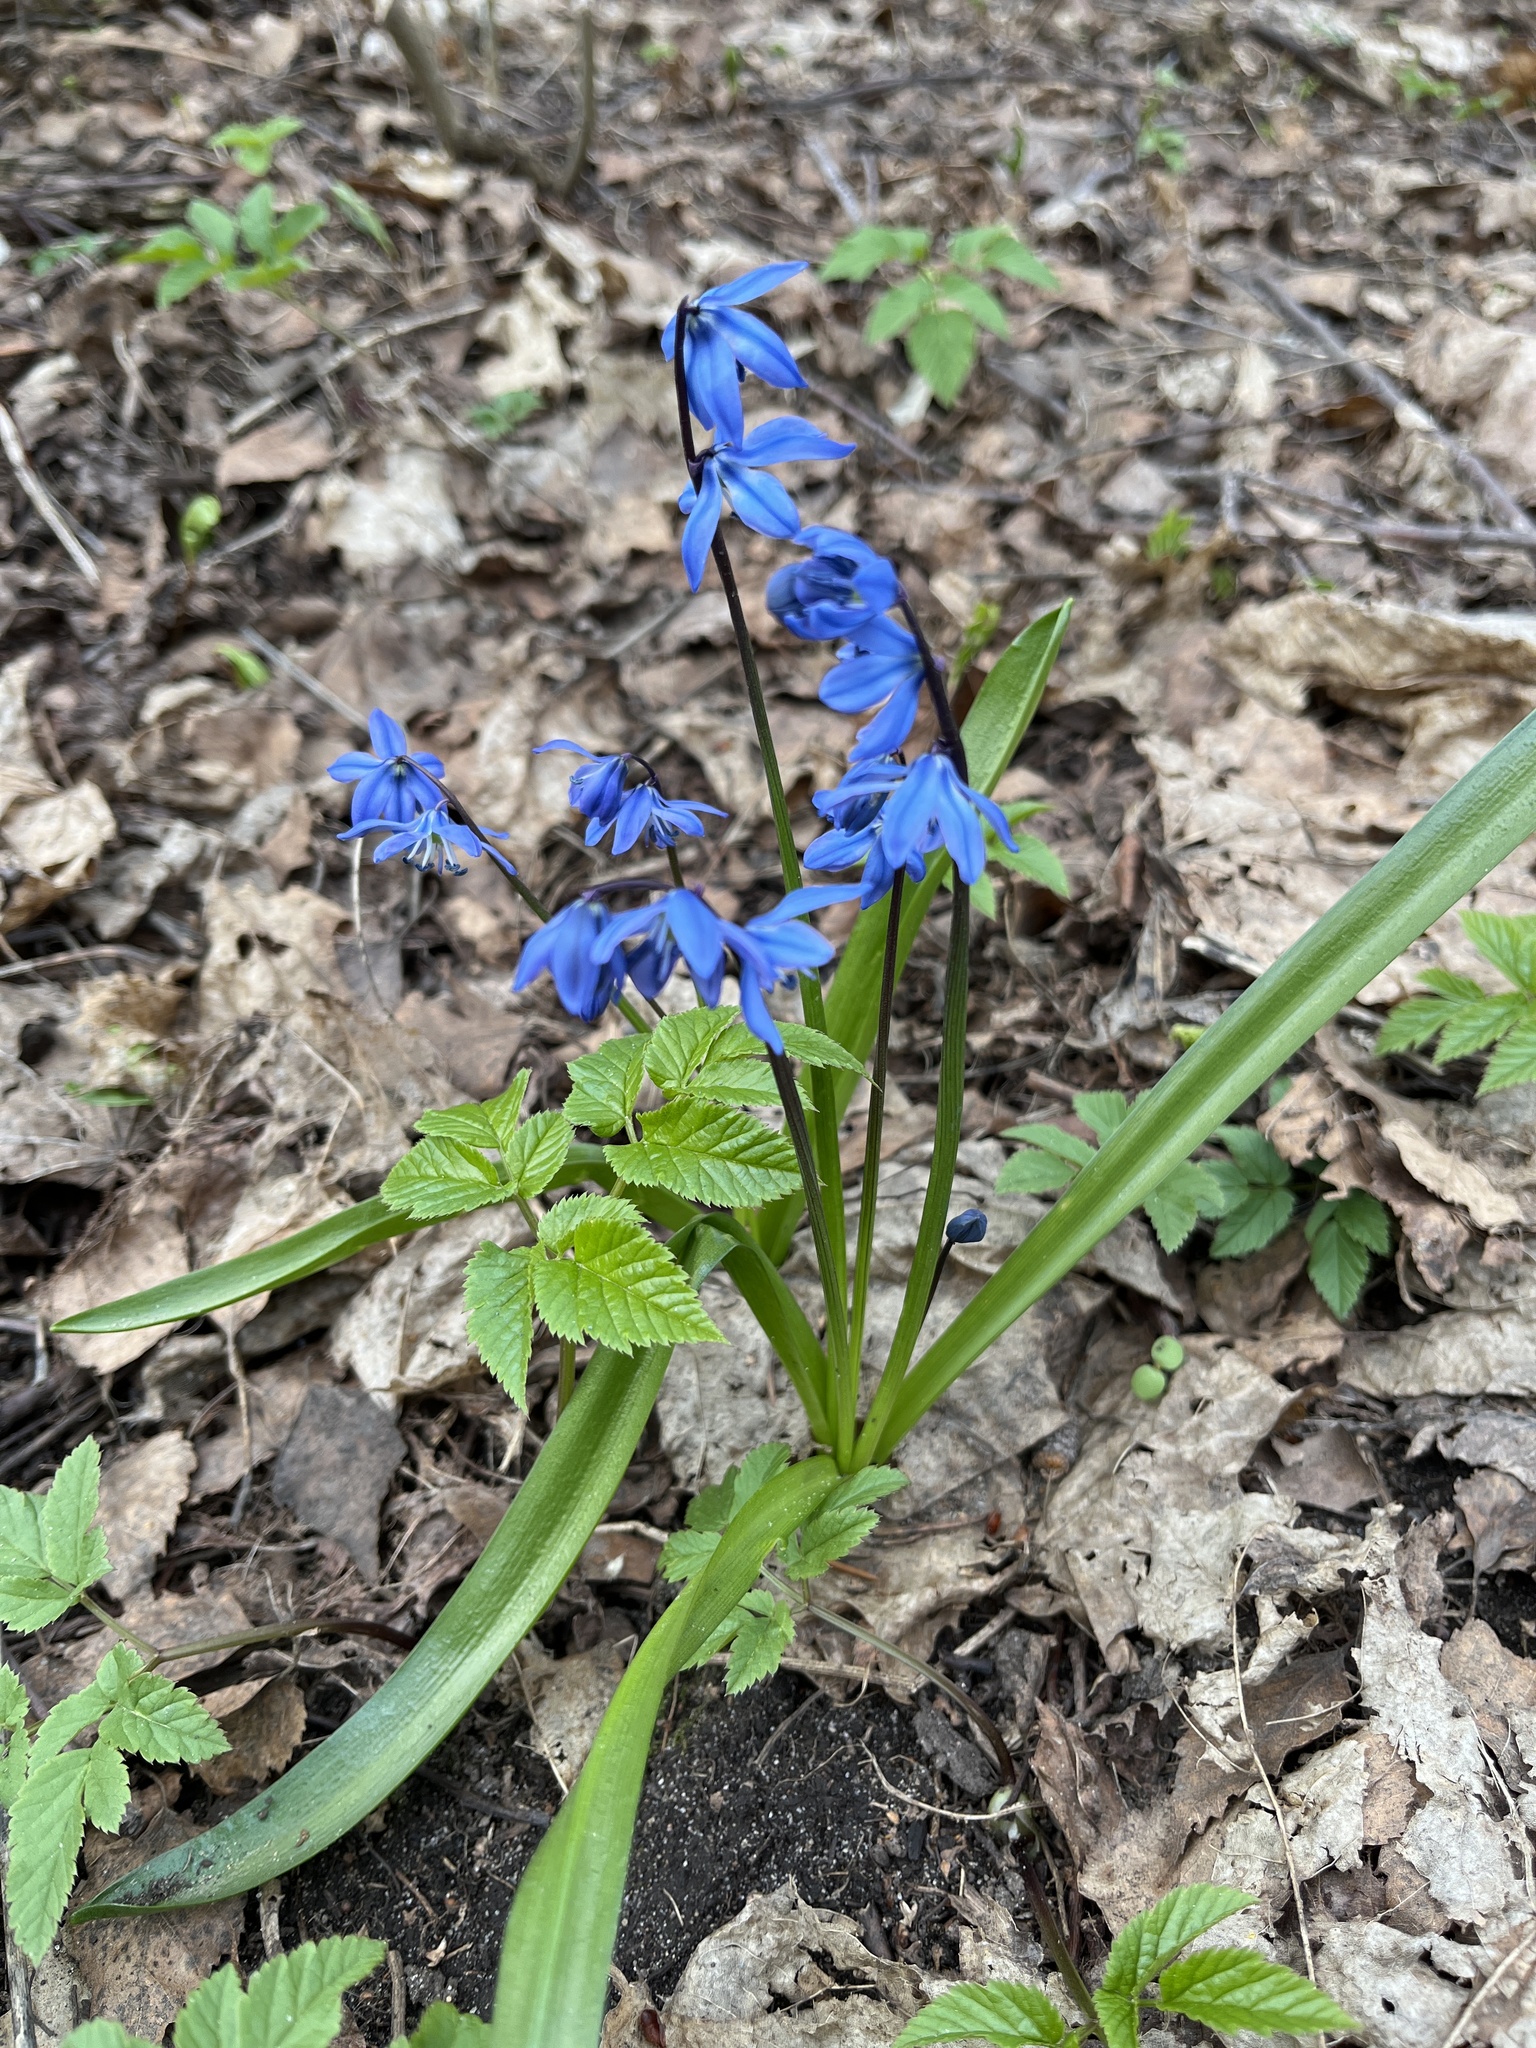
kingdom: Plantae
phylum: Tracheophyta
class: Liliopsida
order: Asparagales
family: Asparagaceae
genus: Scilla
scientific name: Scilla siberica
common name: Siberian squill
